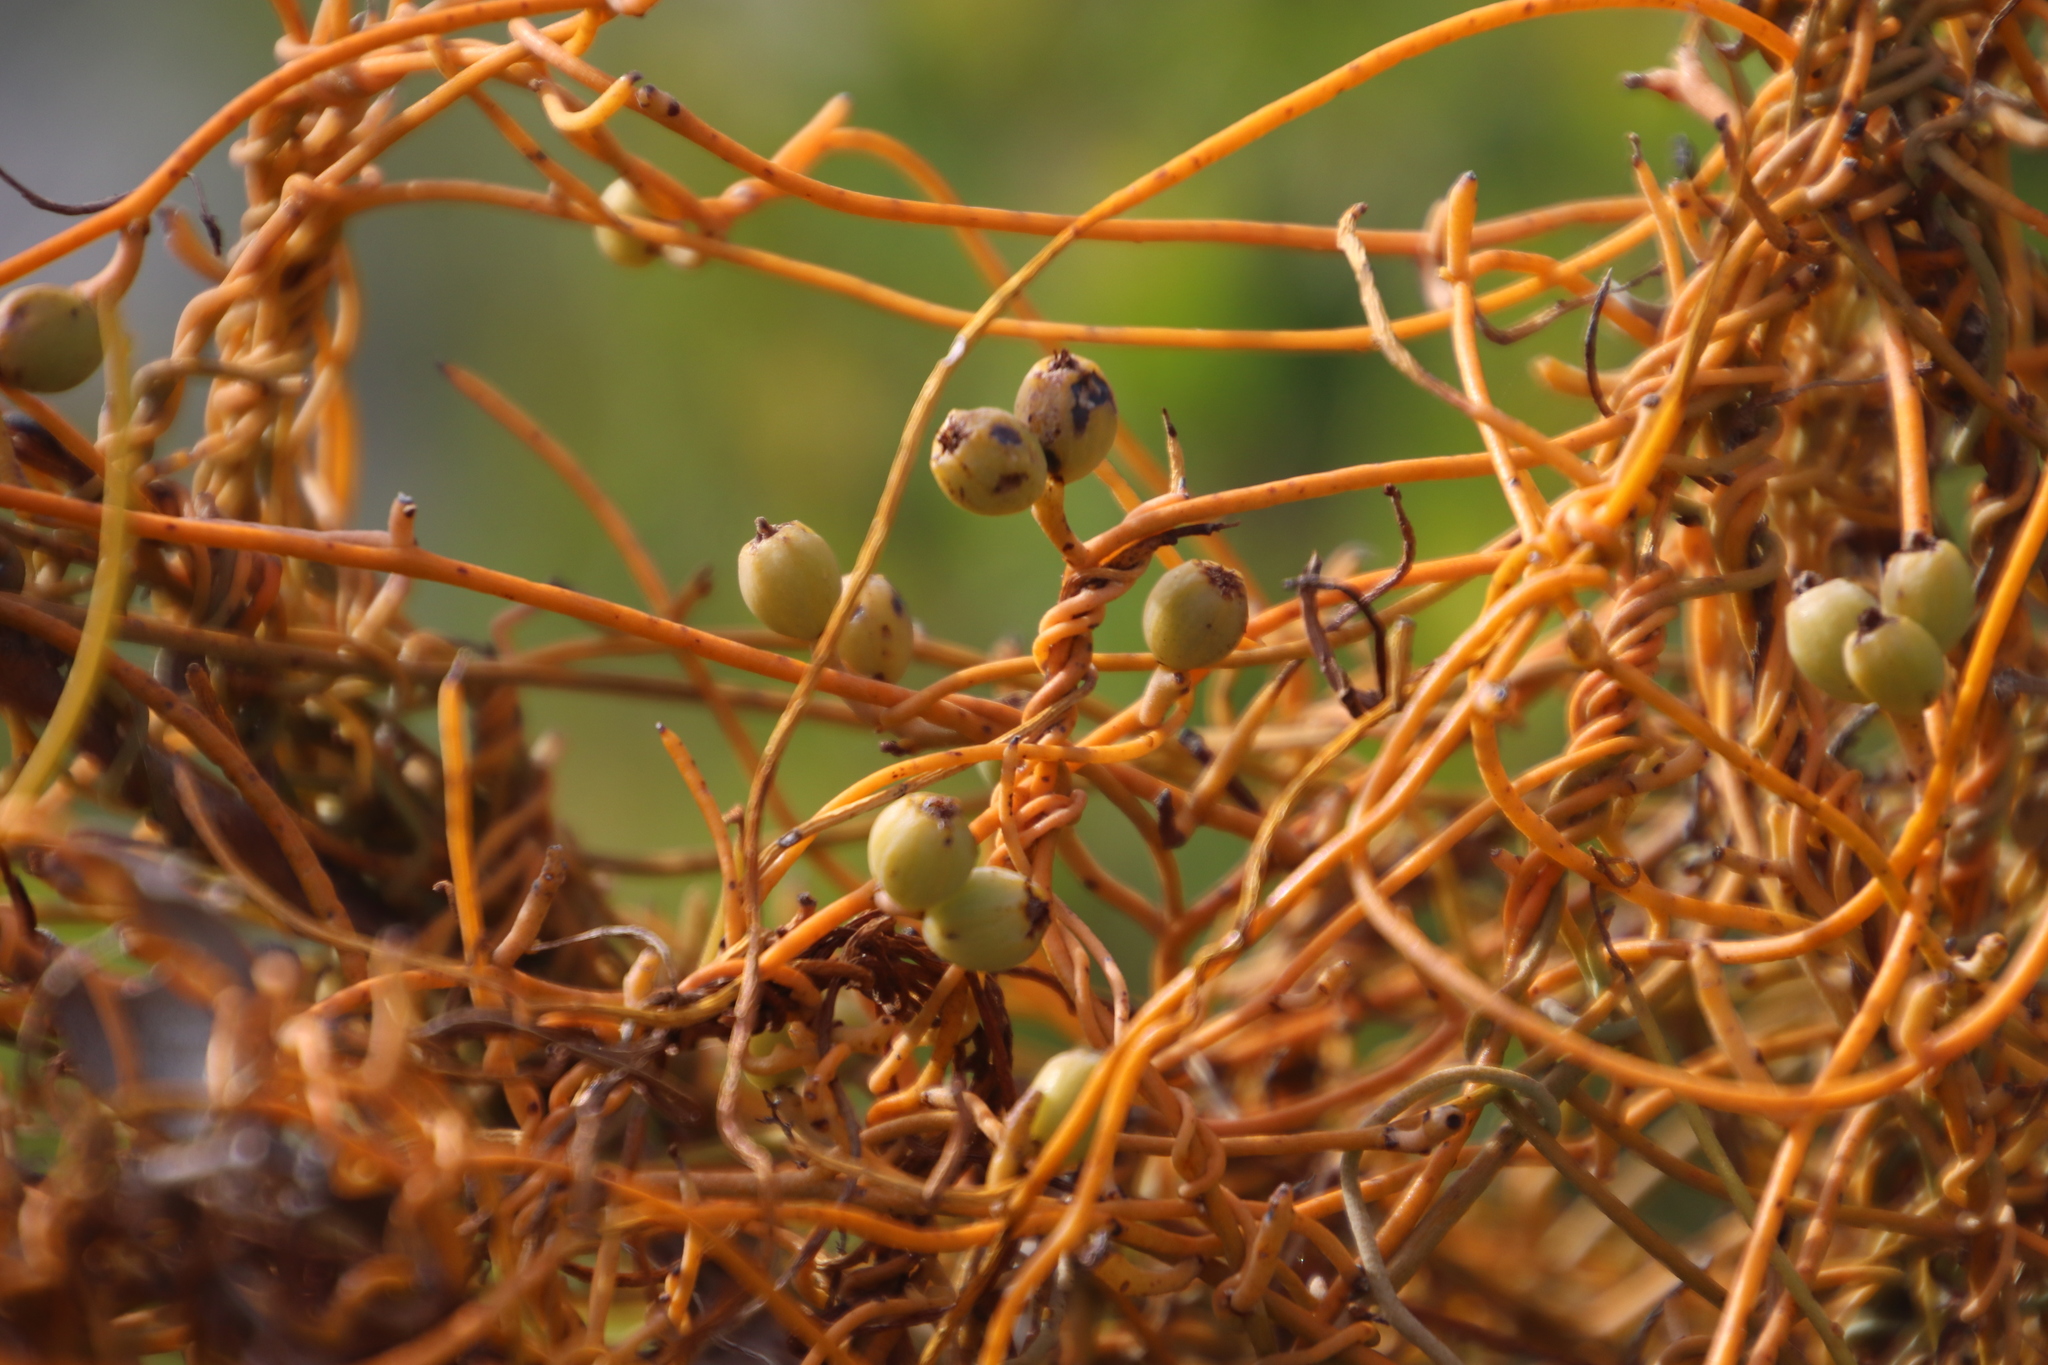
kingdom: Plantae
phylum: Tracheophyta
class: Magnoliopsida
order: Laurales
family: Lauraceae
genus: Cassytha
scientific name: Cassytha ciliolata
